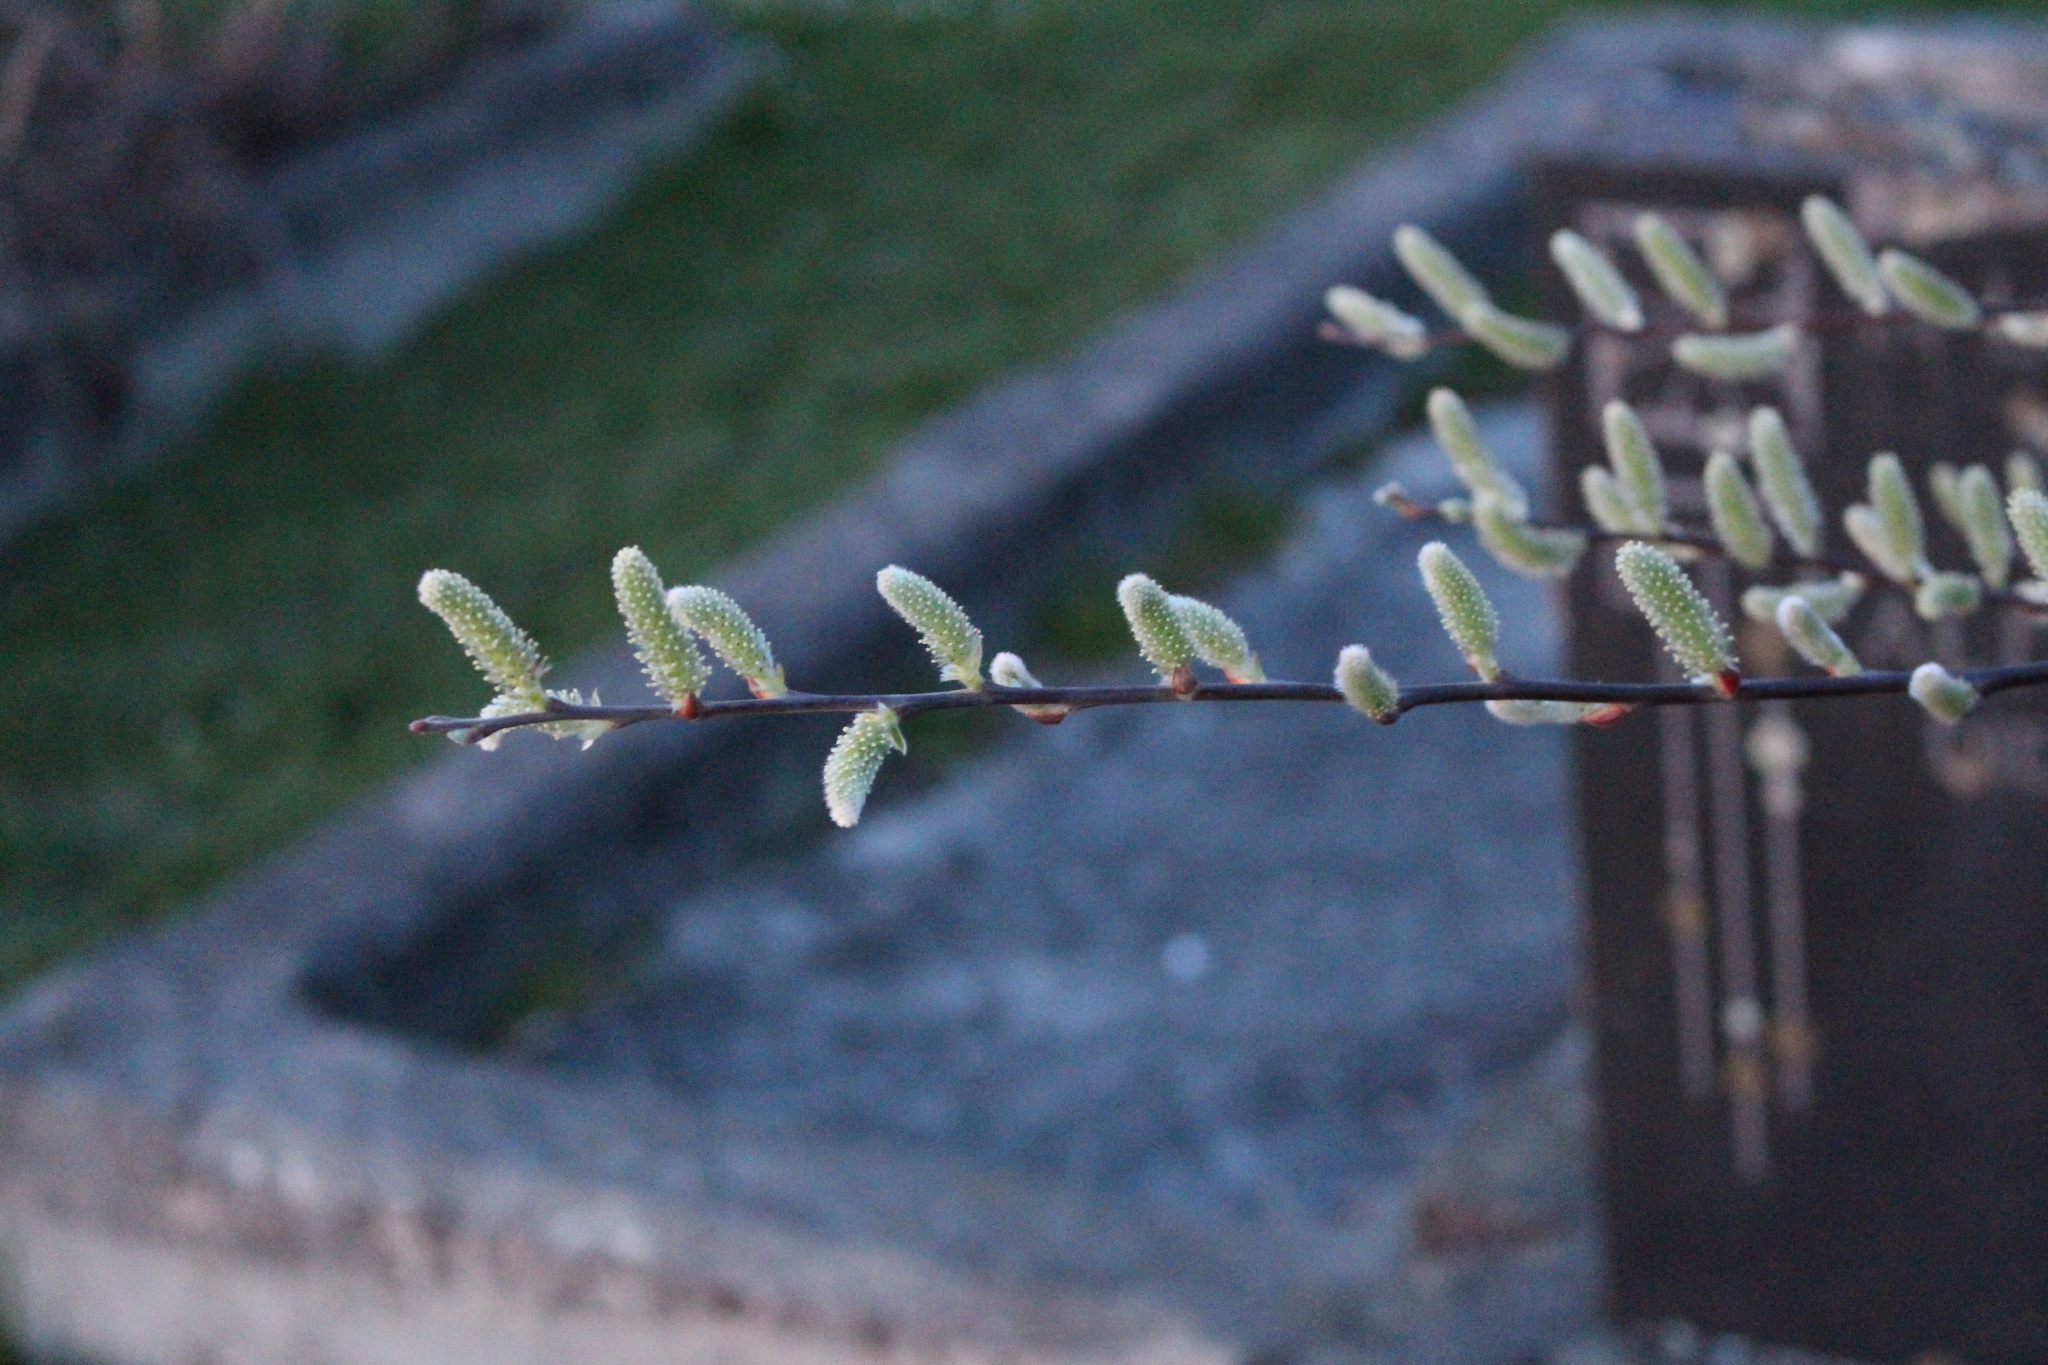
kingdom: Plantae
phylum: Tracheophyta
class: Magnoliopsida
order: Malpighiales
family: Salicaceae
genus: Salix
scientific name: Salix cinerea
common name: Common sallow
